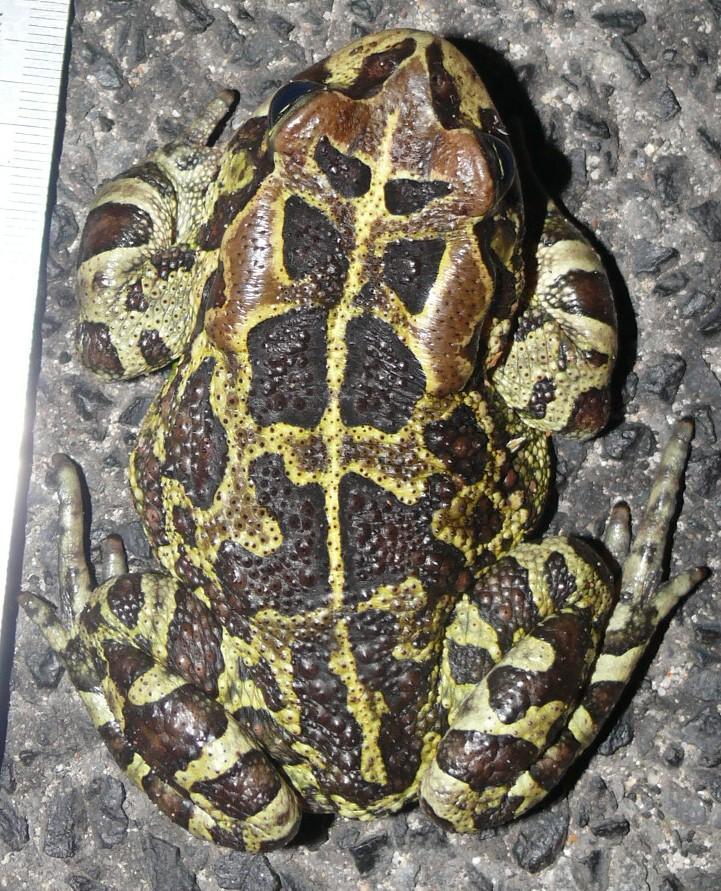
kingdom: Animalia
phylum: Chordata
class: Amphibia
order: Anura
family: Bufonidae
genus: Sclerophrys
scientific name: Sclerophrys pantherina
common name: Panther toad
